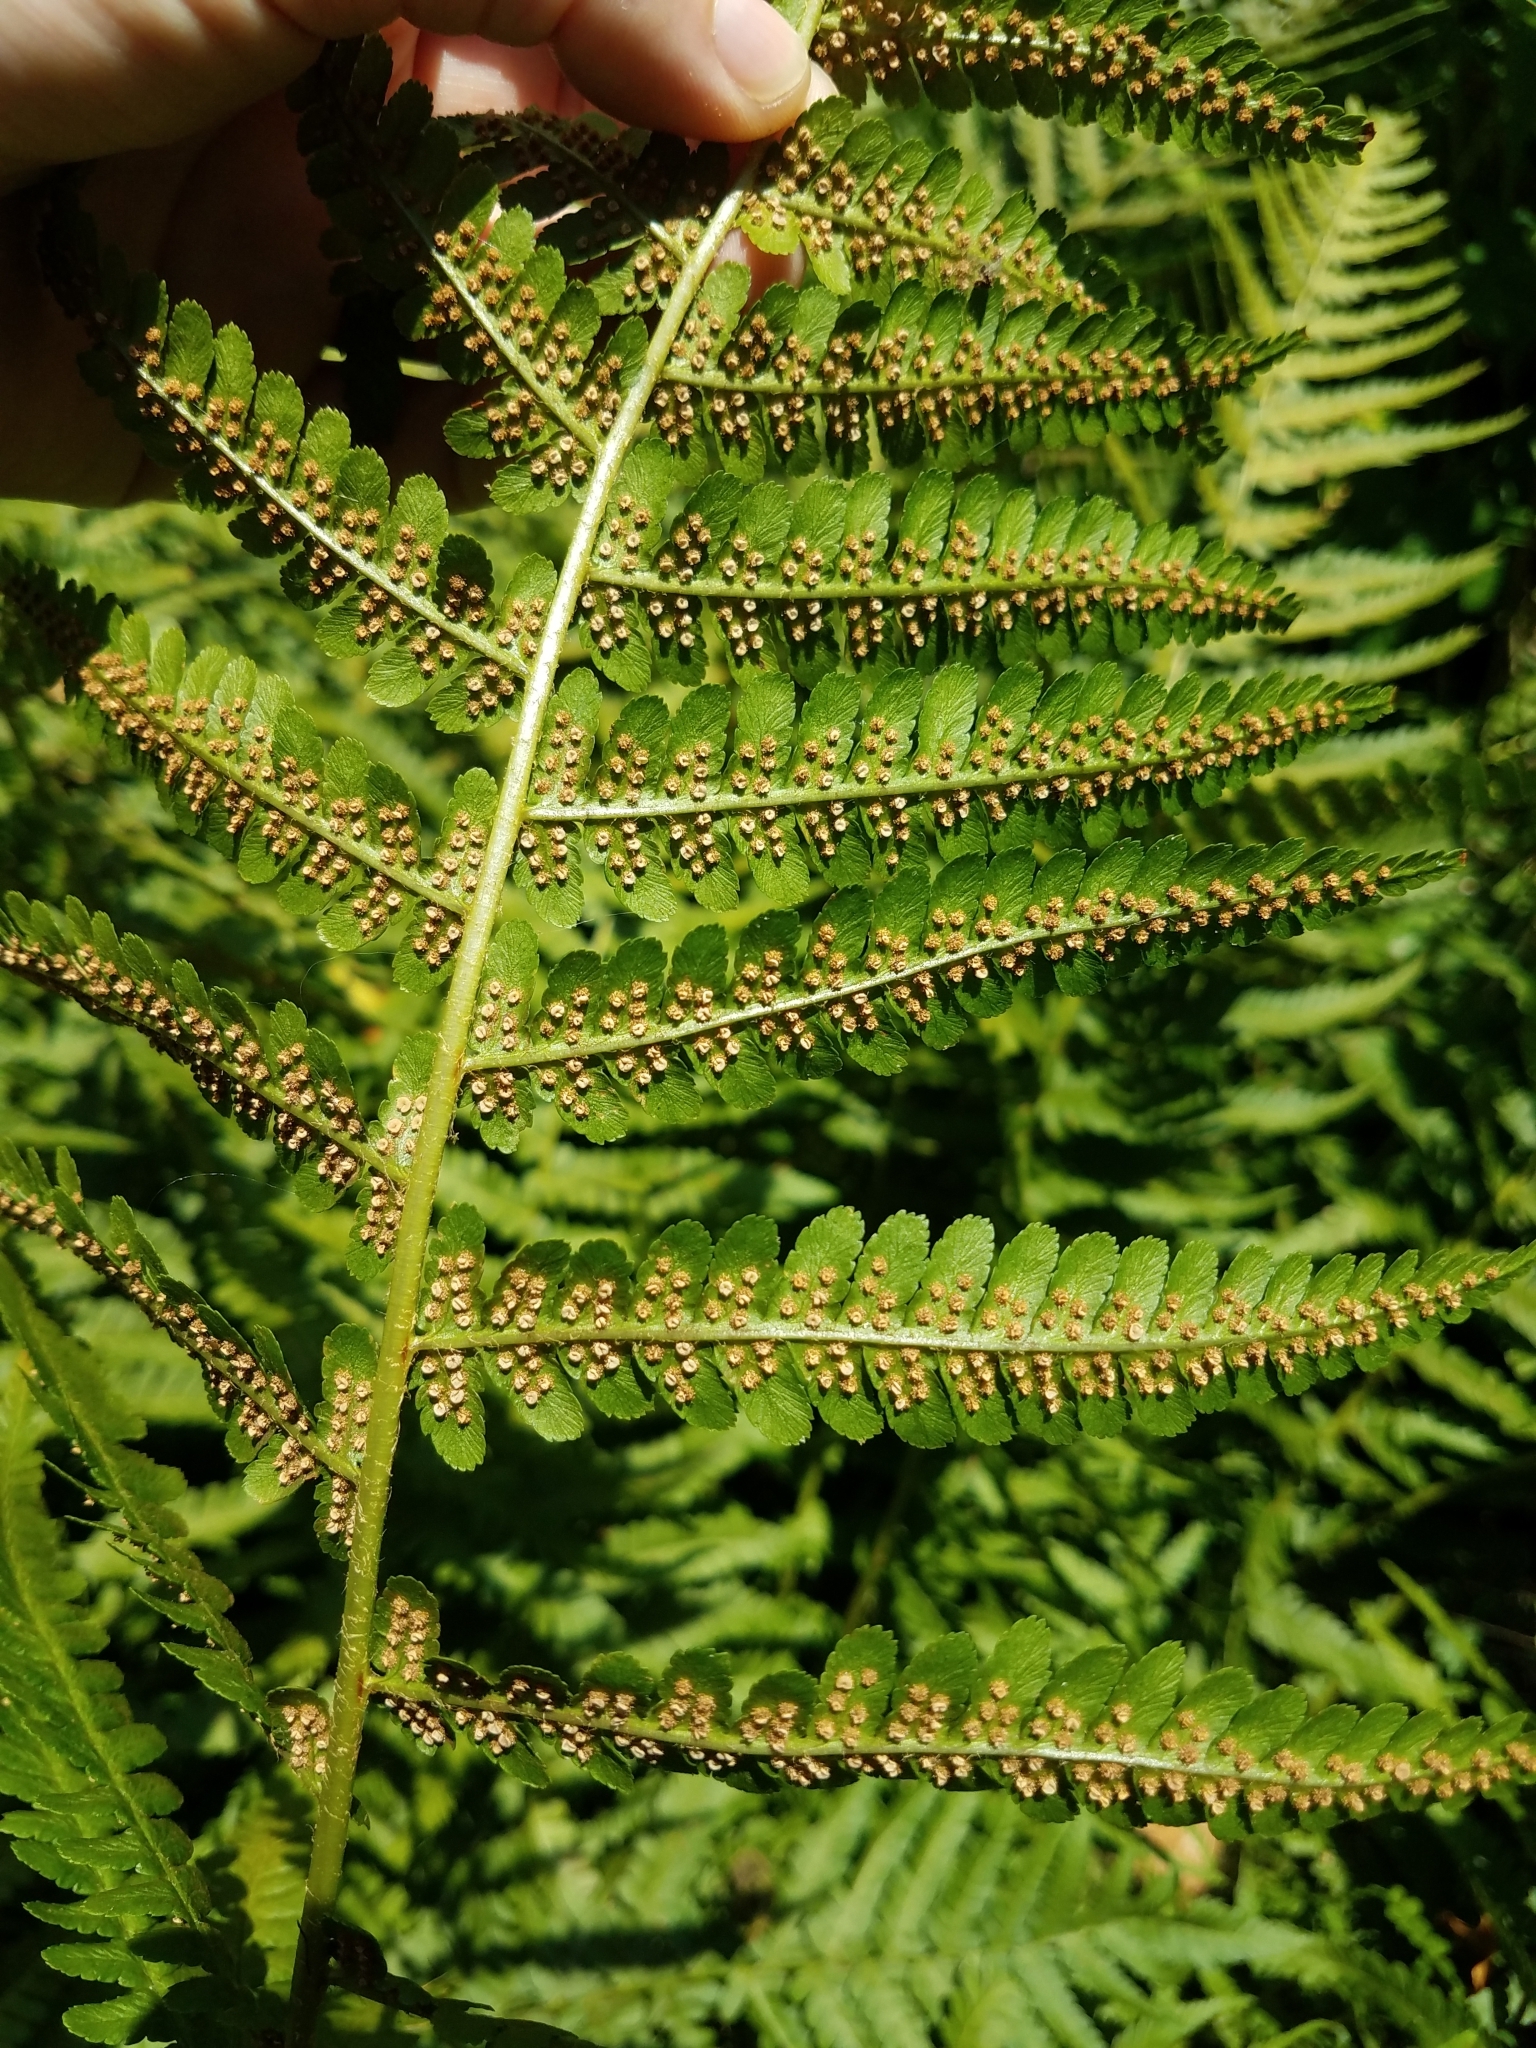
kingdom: Plantae
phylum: Tracheophyta
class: Polypodiopsida
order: Polypodiales
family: Dryopteridaceae
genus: Dryopteris
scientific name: Dryopteris filix-mas
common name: Male fern
